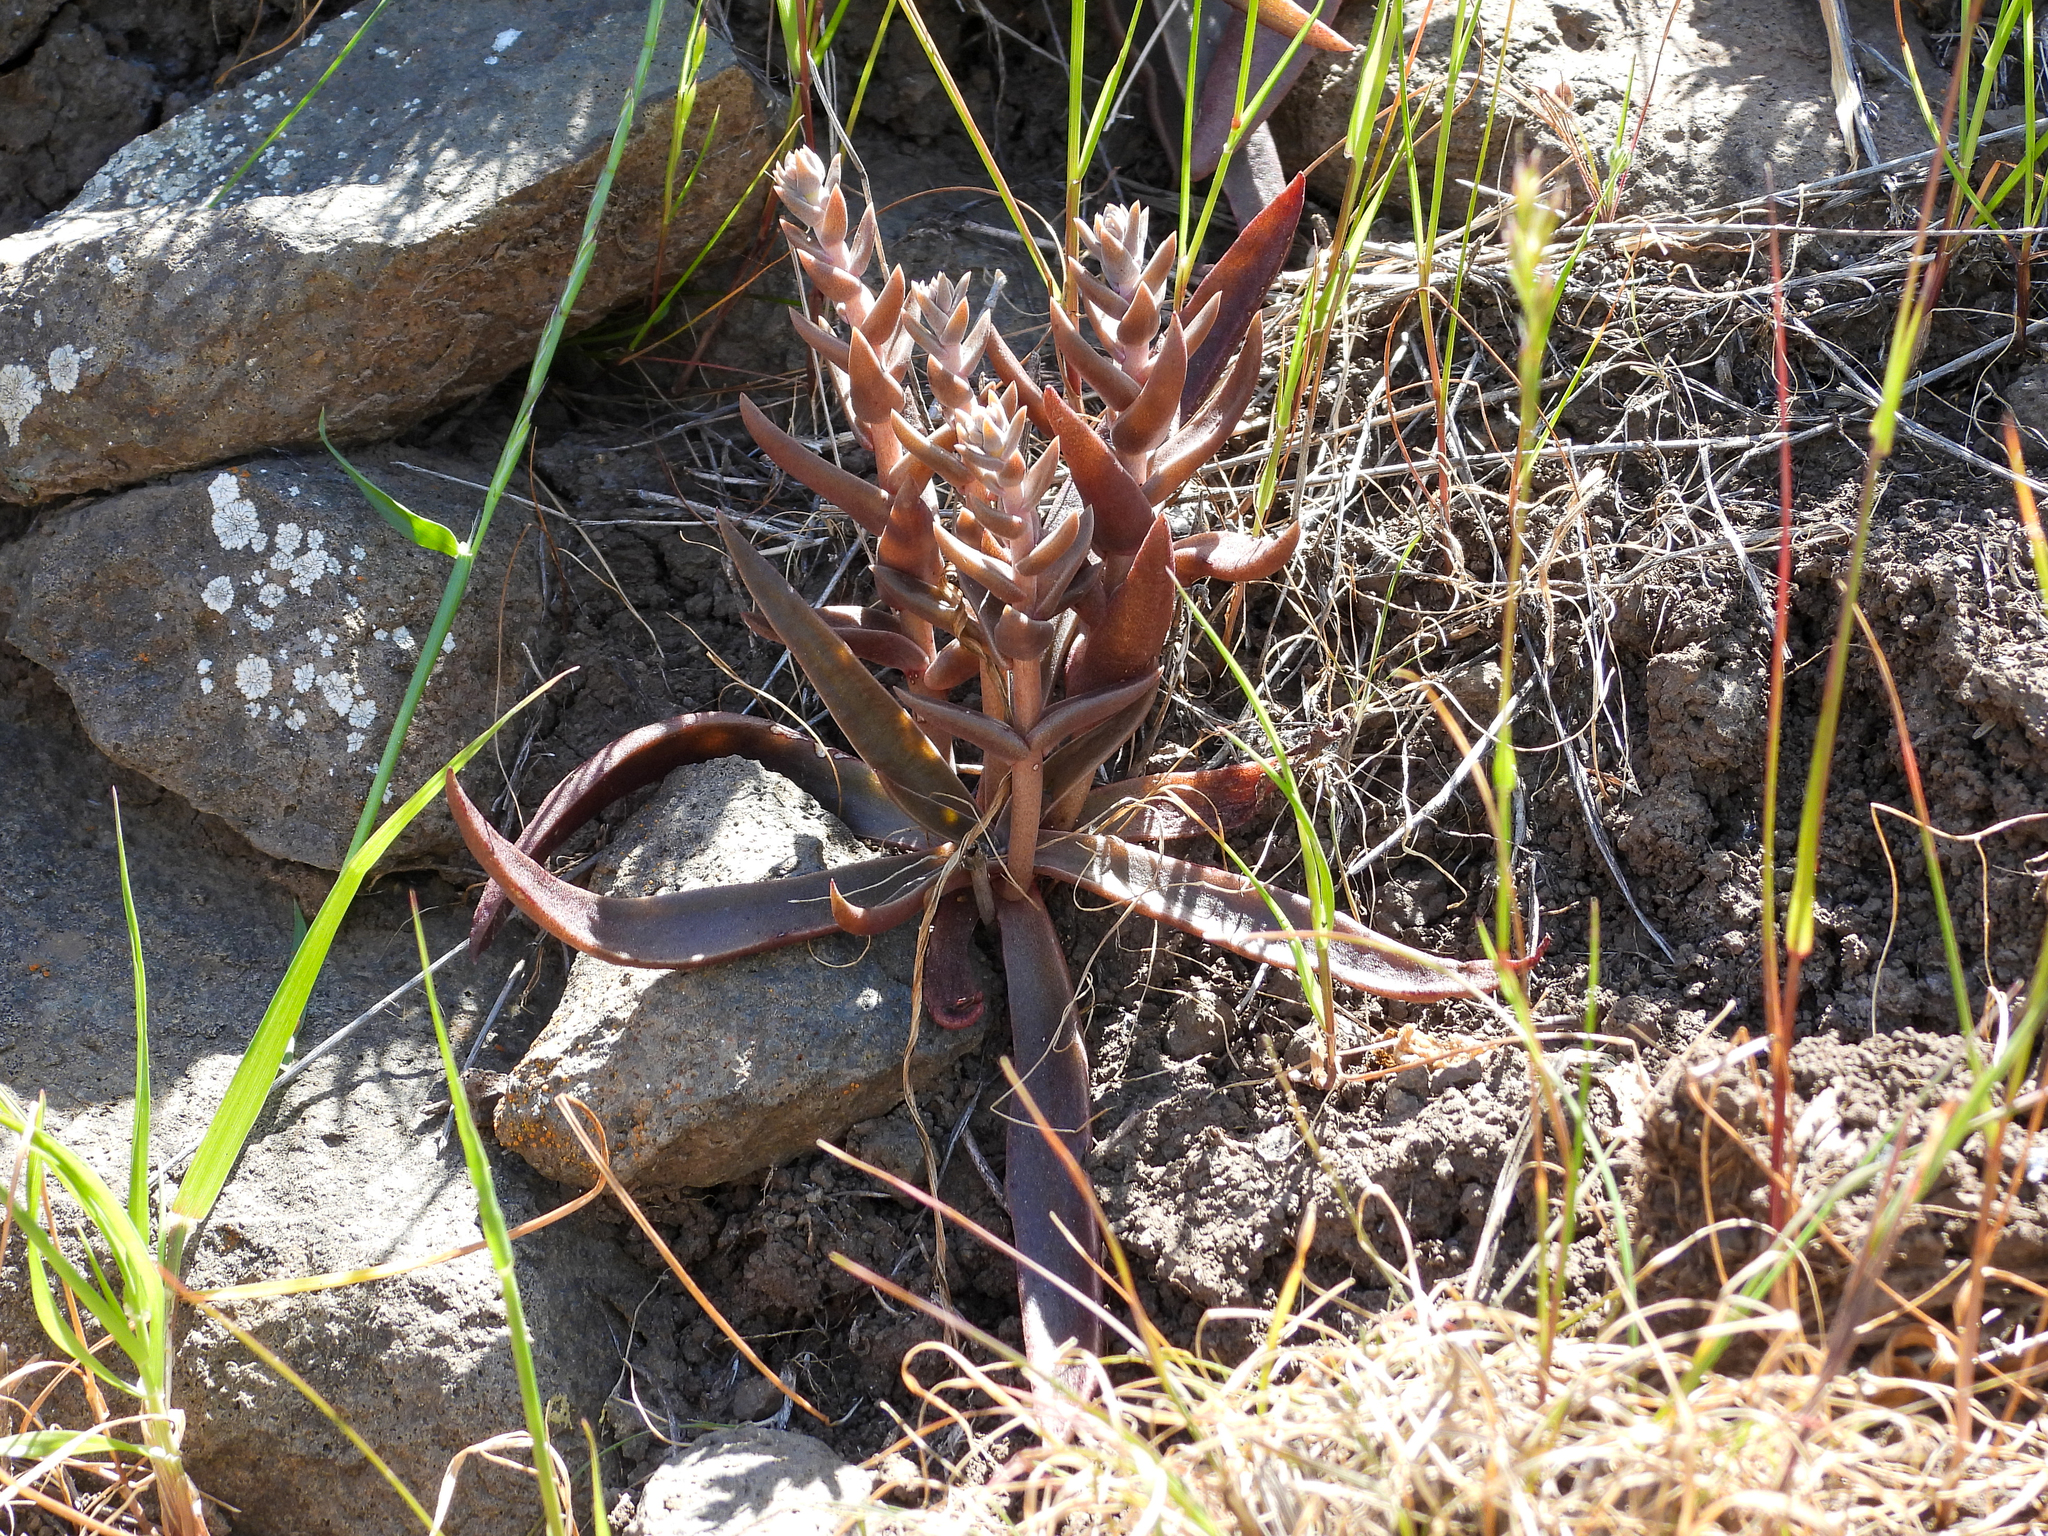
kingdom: Plantae
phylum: Tracheophyta
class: Magnoliopsida
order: Saxifragales
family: Crassulaceae
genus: Dudleya
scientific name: Dudleya parva
